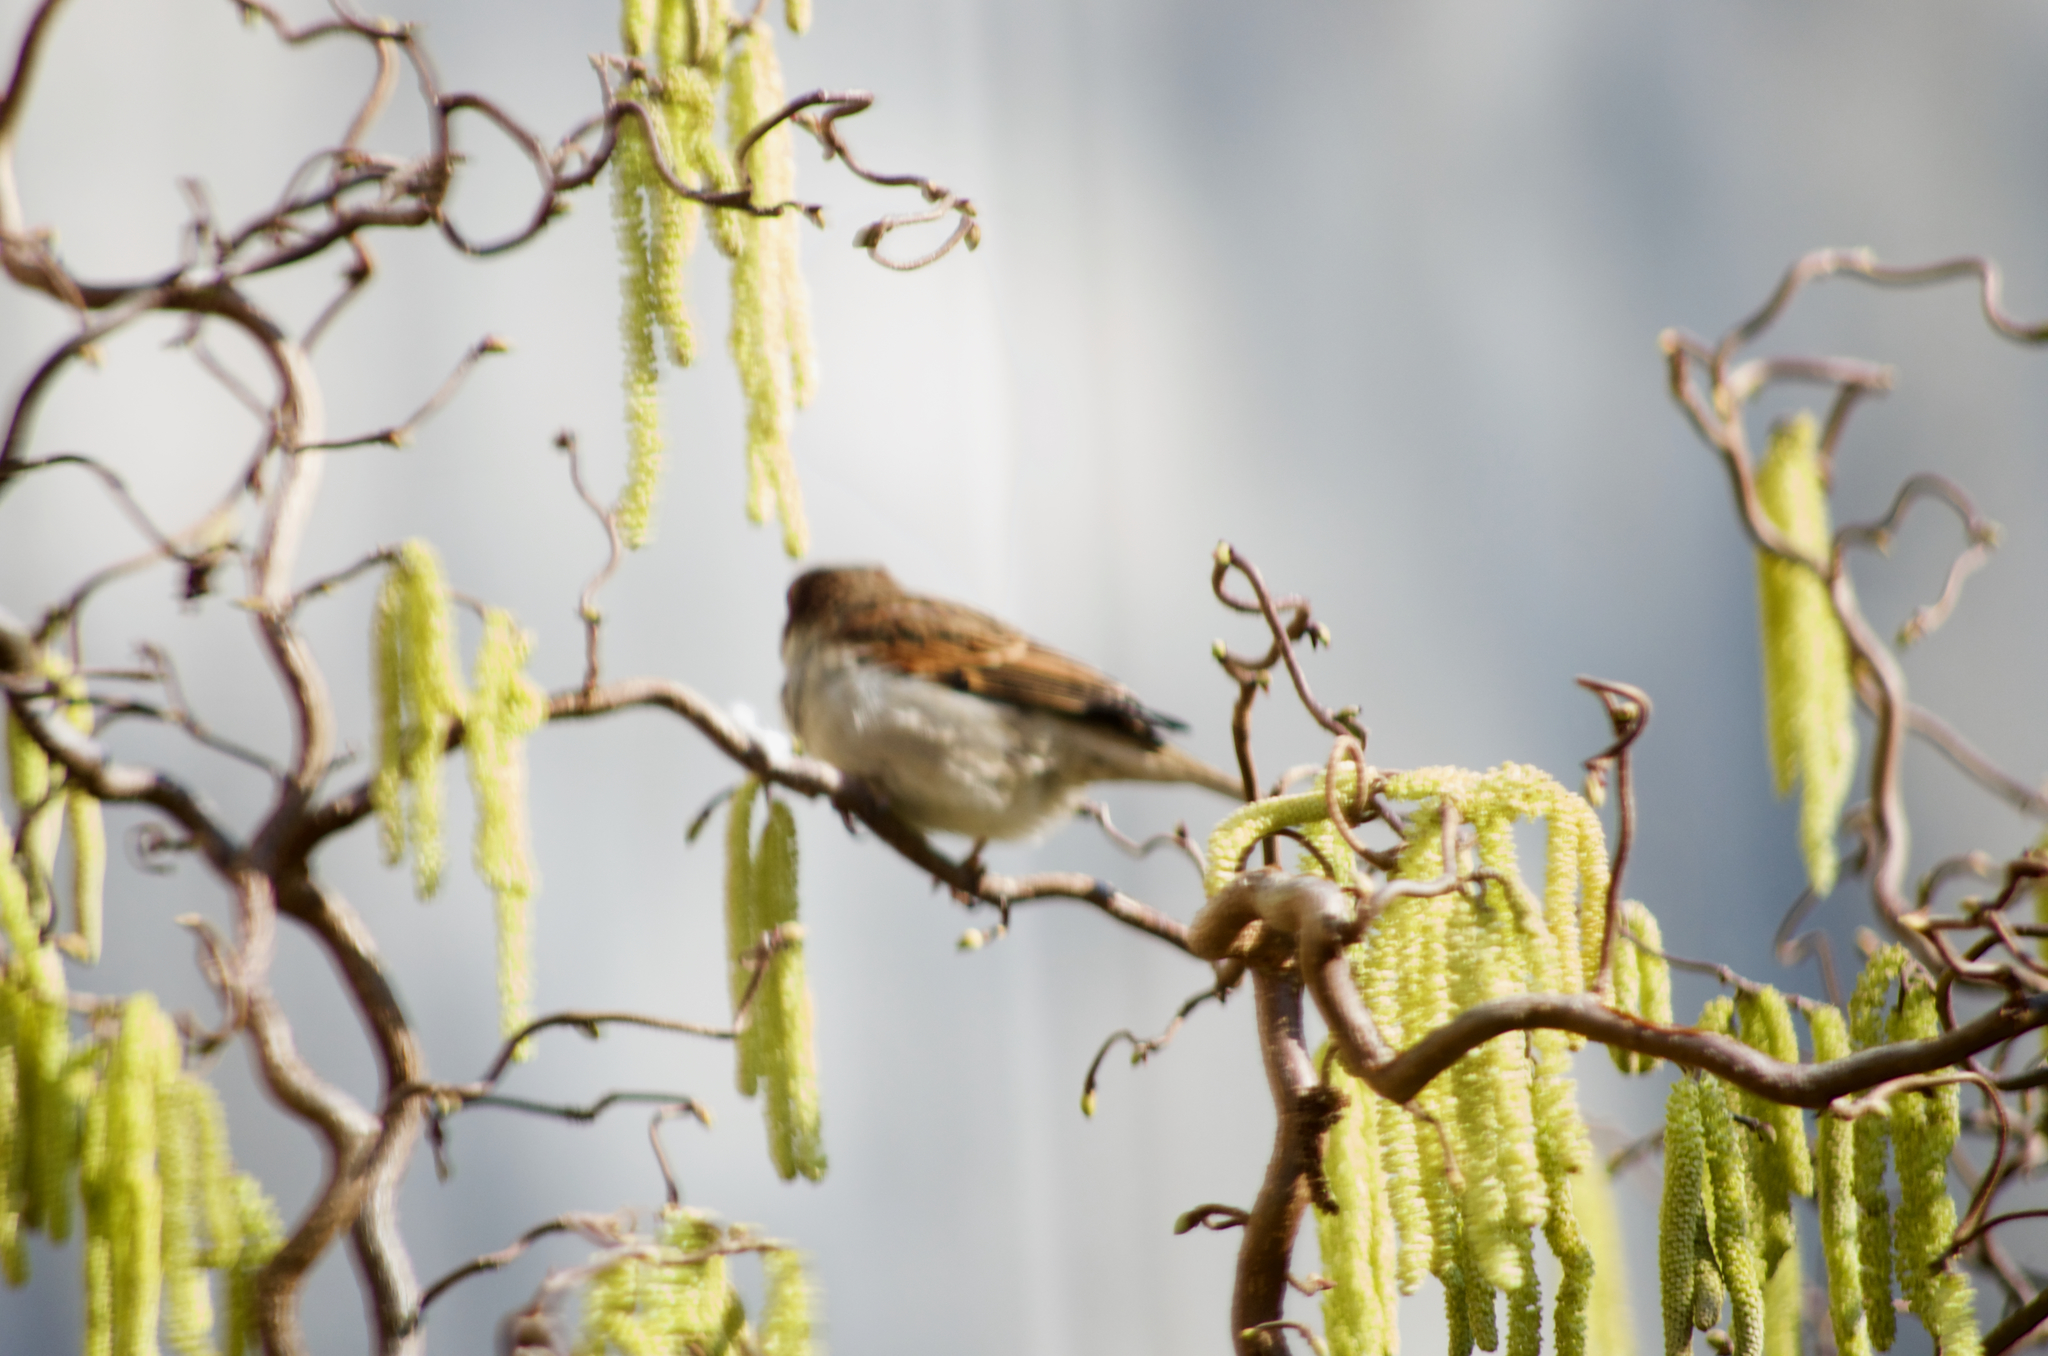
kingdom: Animalia
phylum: Chordata
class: Aves
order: Passeriformes
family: Passeridae
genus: Passer
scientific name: Passer domesticus
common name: House sparrow
